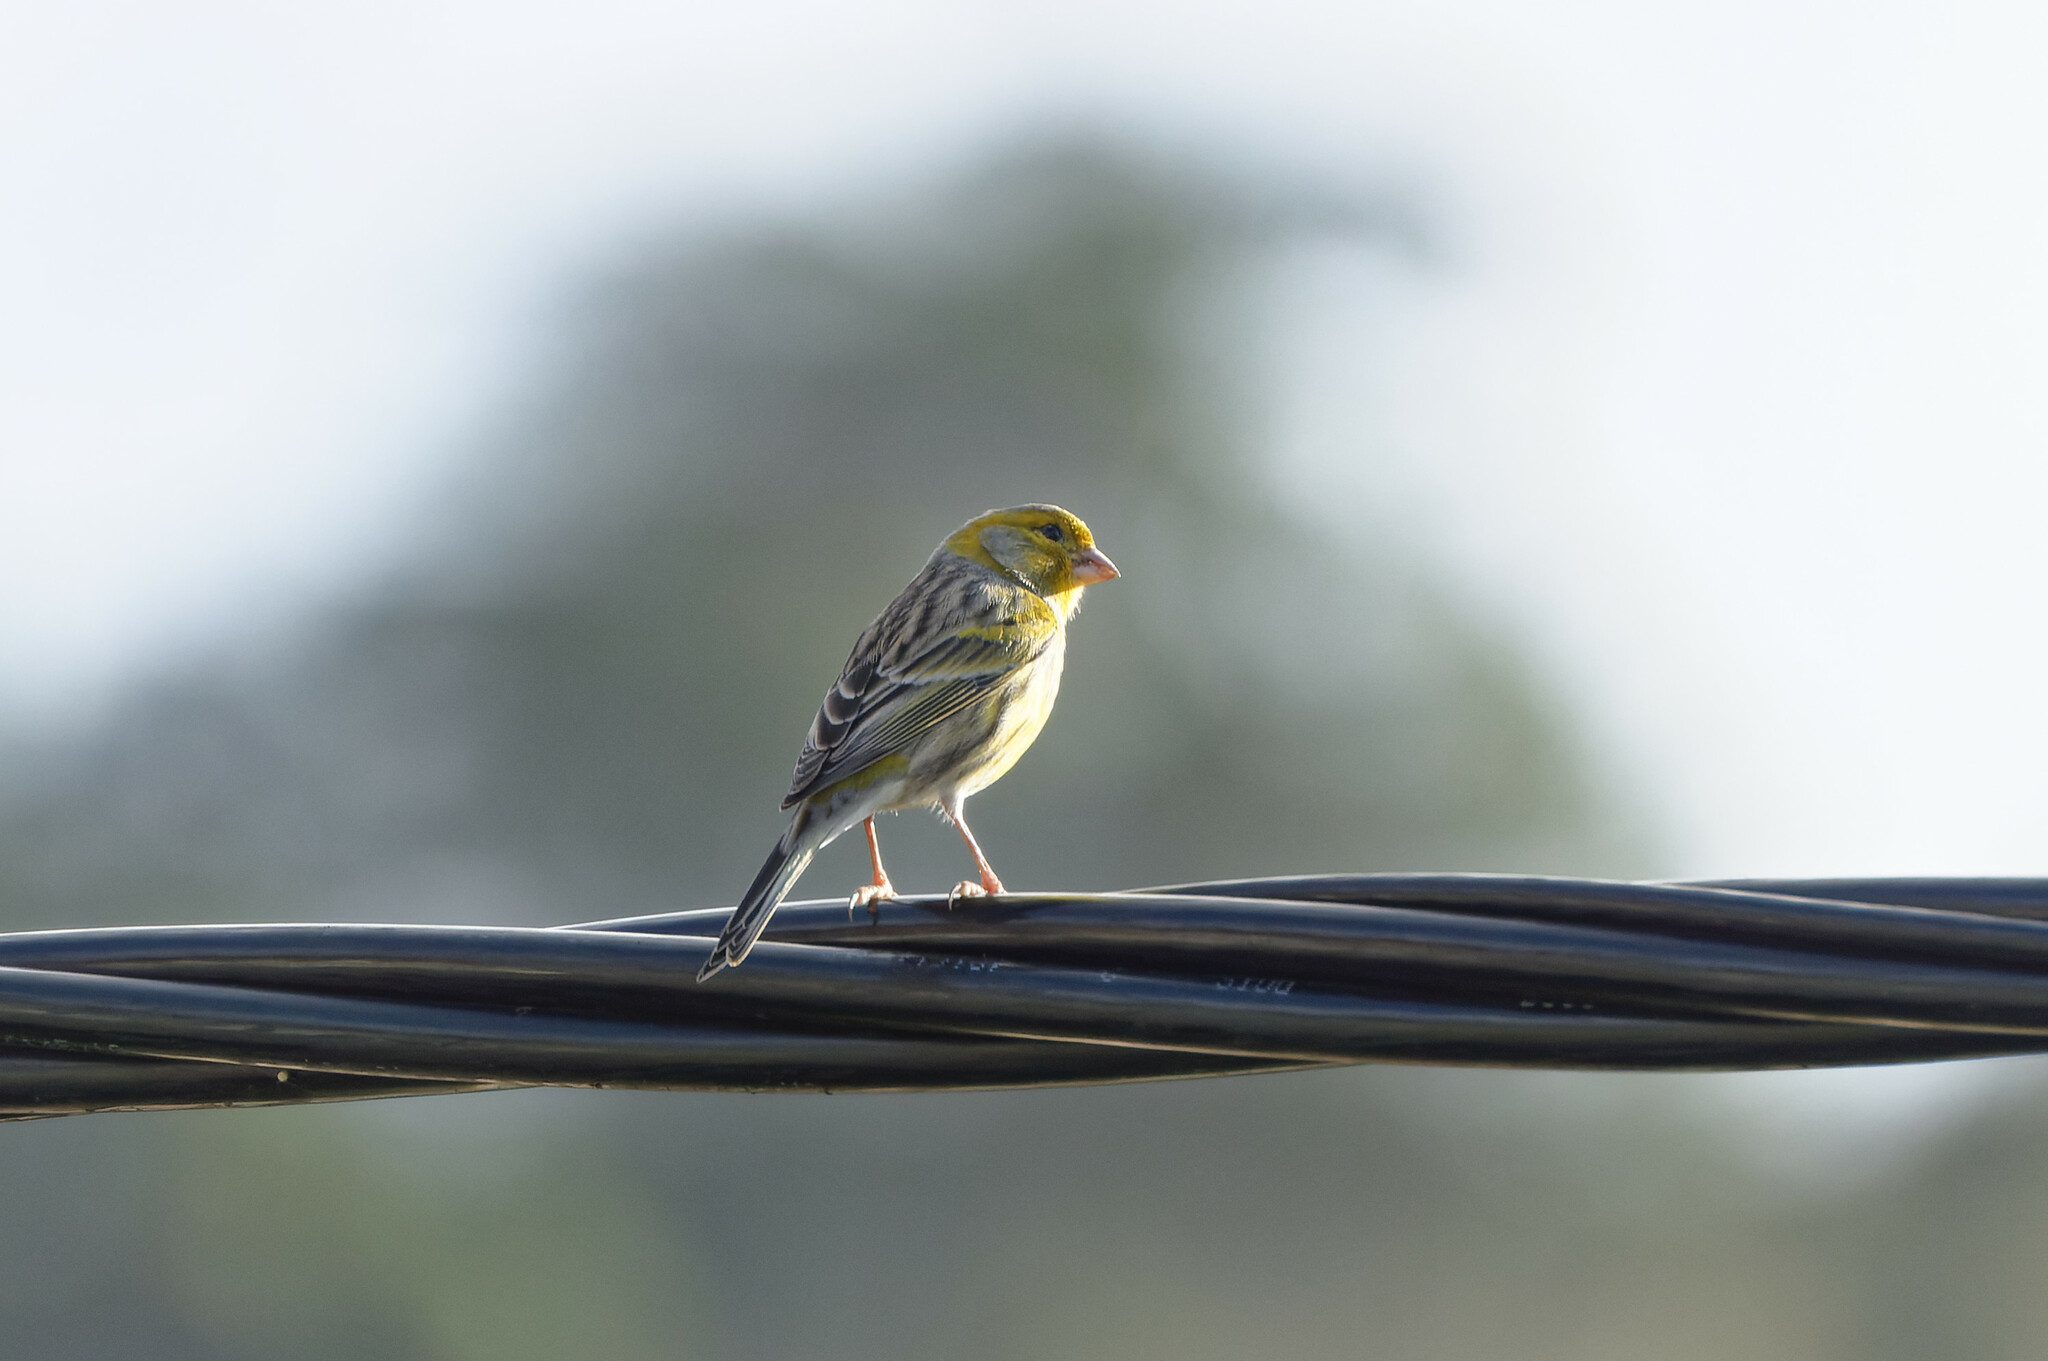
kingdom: Animalia
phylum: Chordata
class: Aves
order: Passeriformes
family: Fringillidae
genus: Serinus
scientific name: Serinus canaria
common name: Atlantic canary
